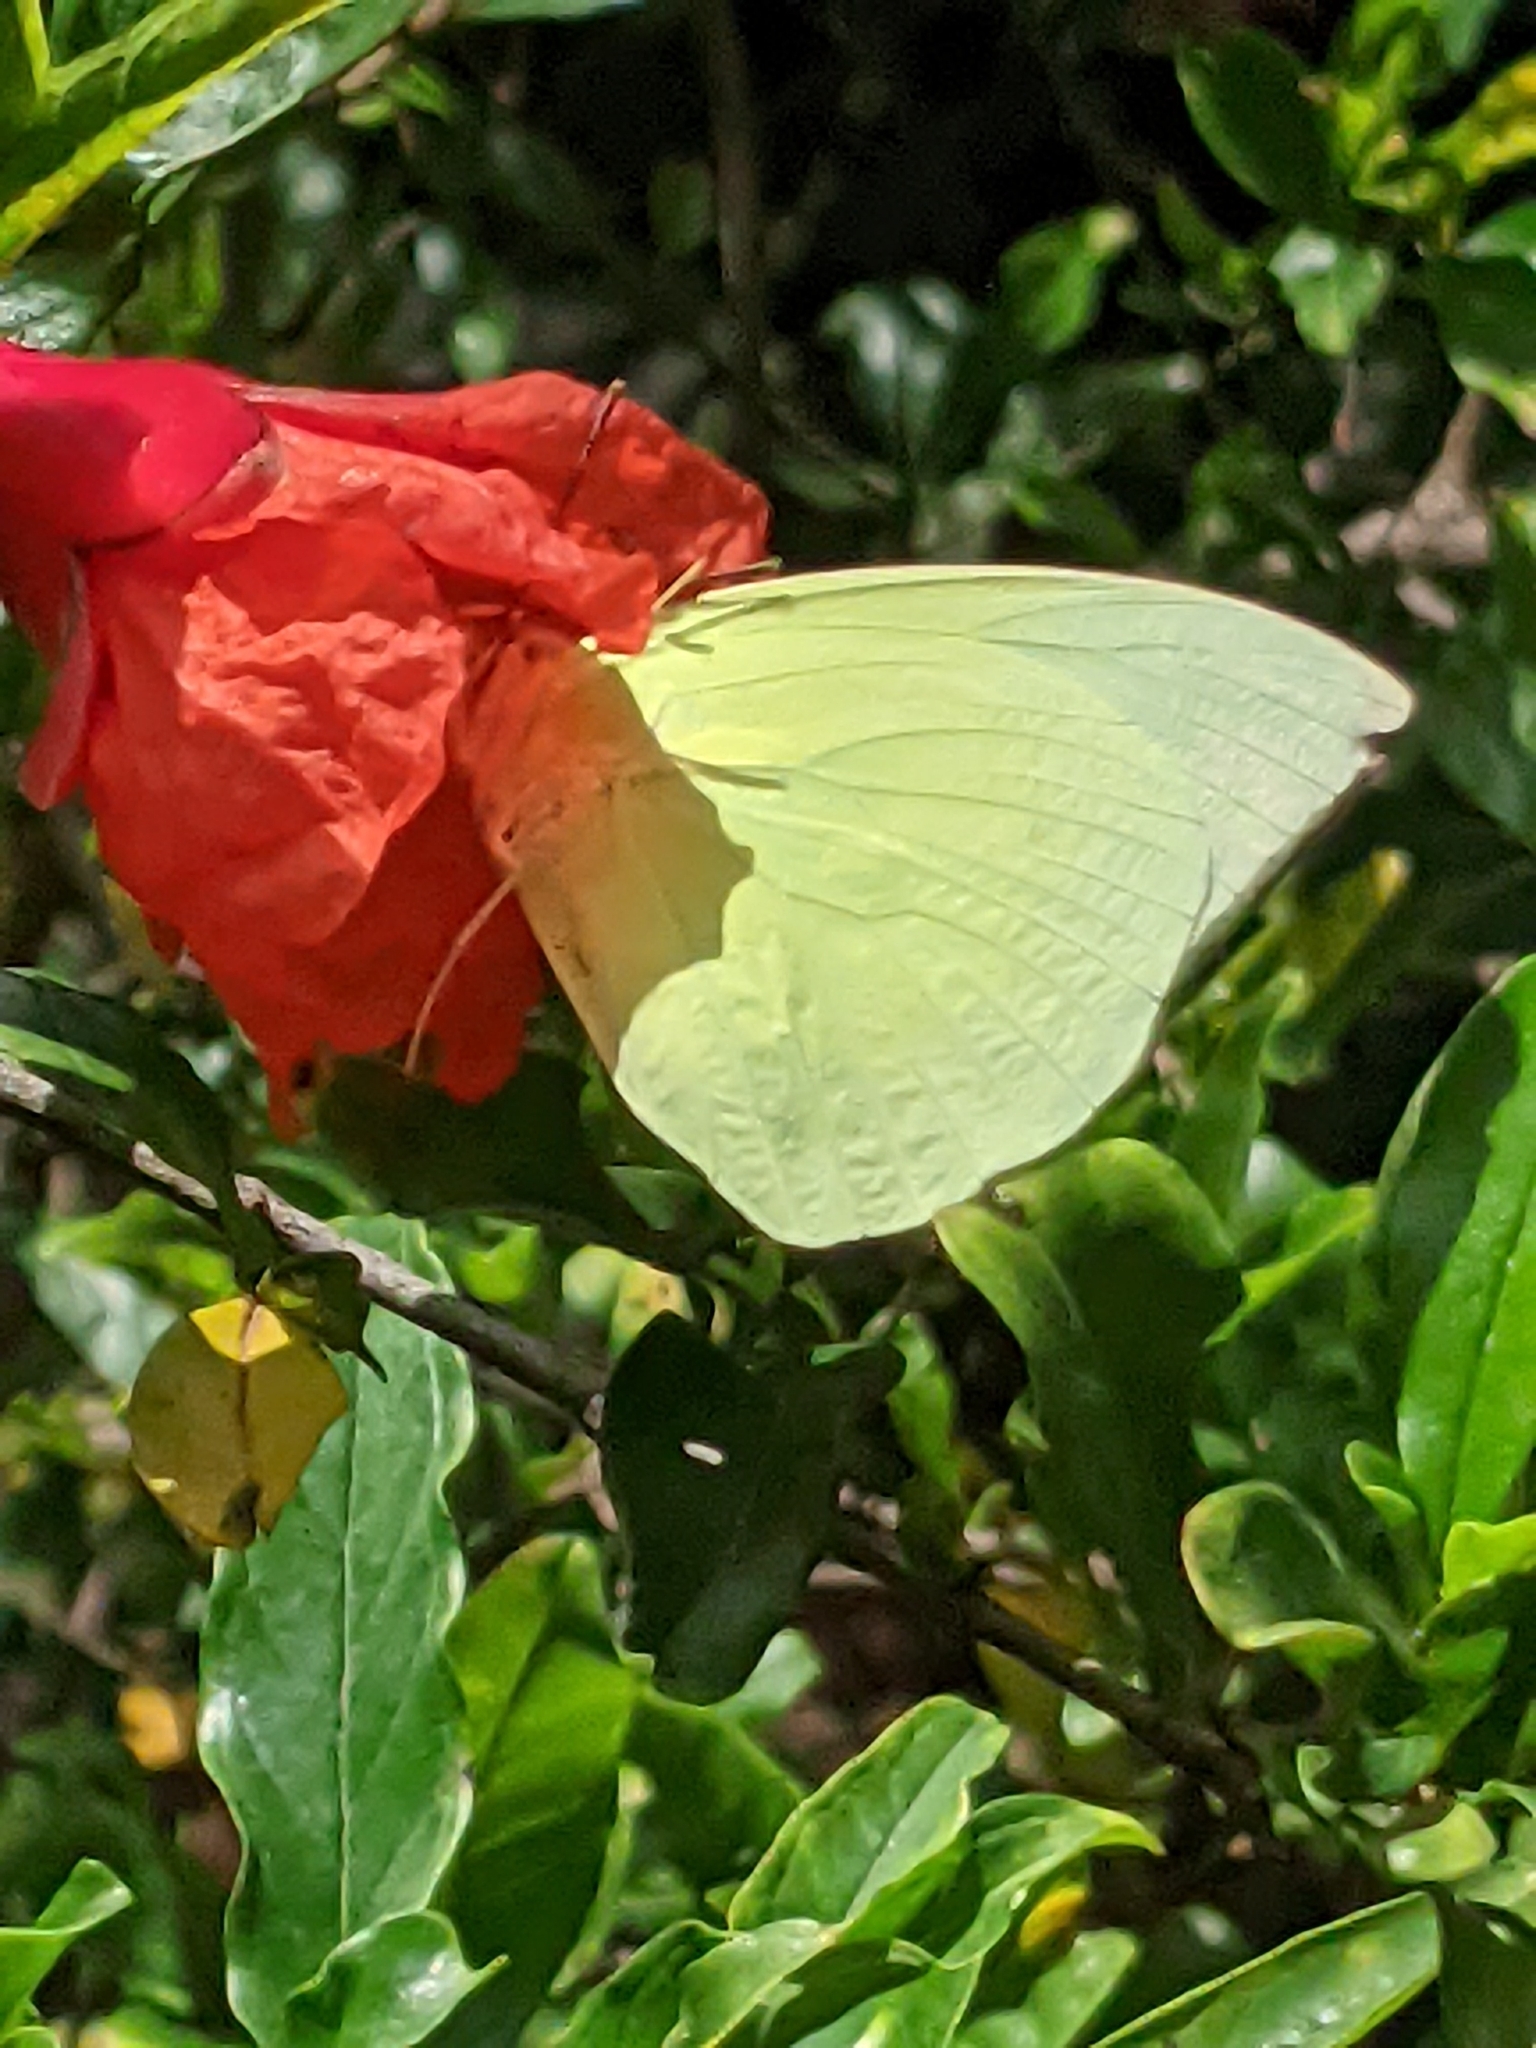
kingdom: Animalia
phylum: Arthropoda
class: Insecta
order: Lepidoptera
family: Pieridae
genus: Catopsilia
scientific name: Catopsilia pomona
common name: Common emigrant
